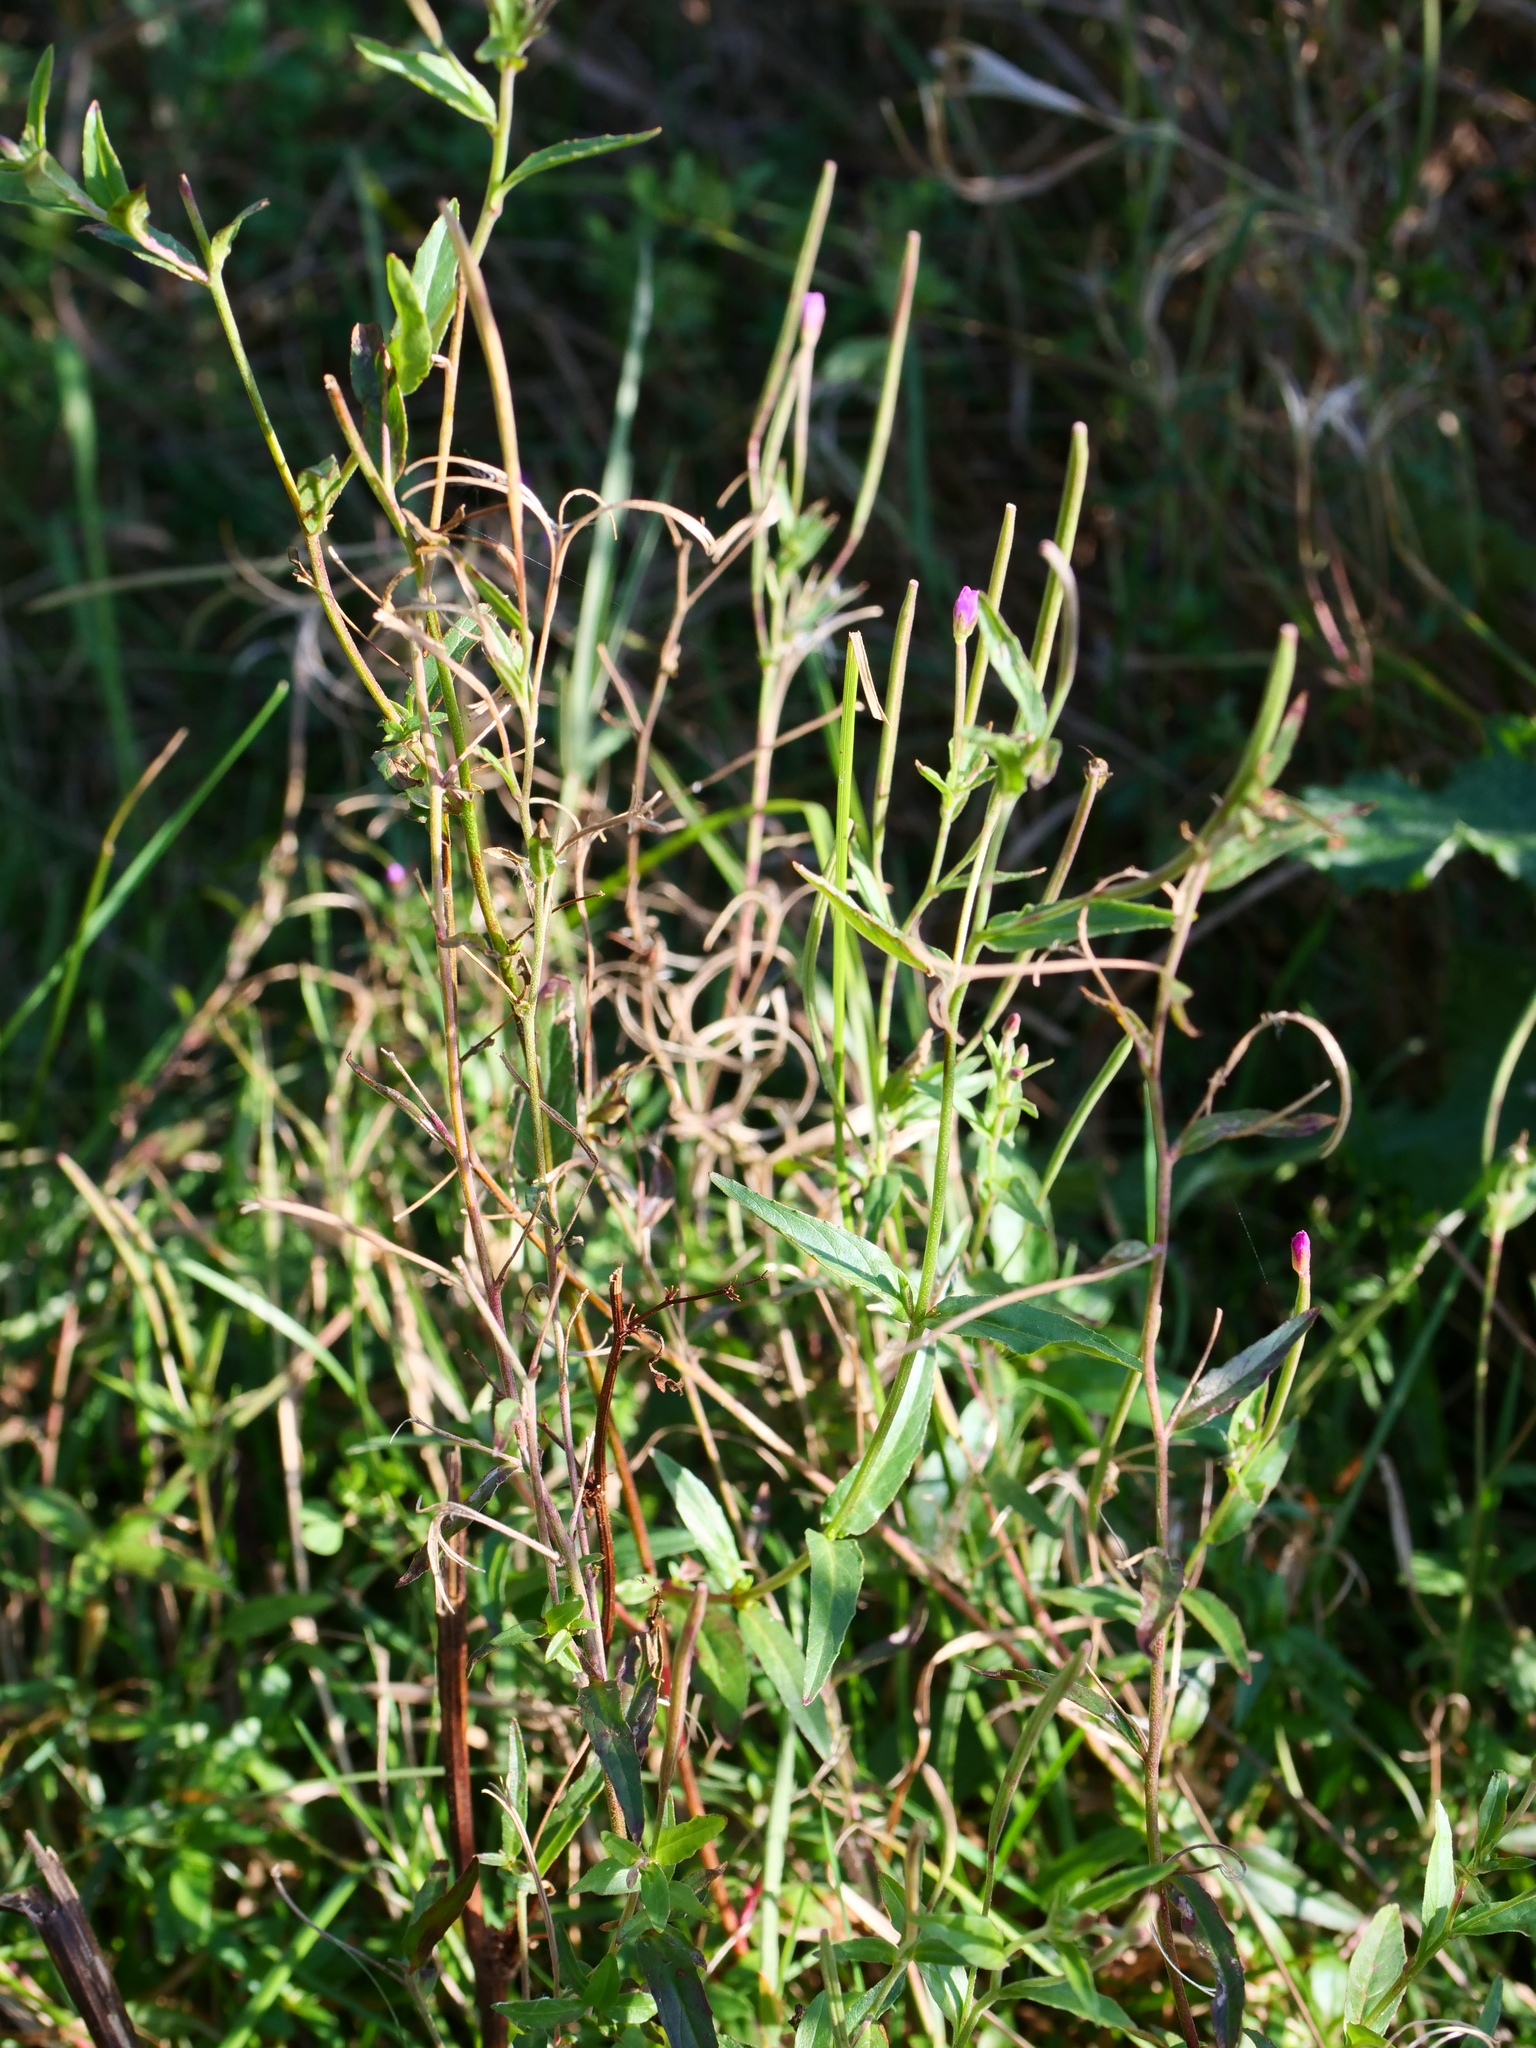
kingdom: Plantae
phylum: Tracheophyta
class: Magnoliopsida
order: Myrtales
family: Onagraceae
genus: Epilobium
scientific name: Epilobium tetragonum
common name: Square-stemmed willowherb
